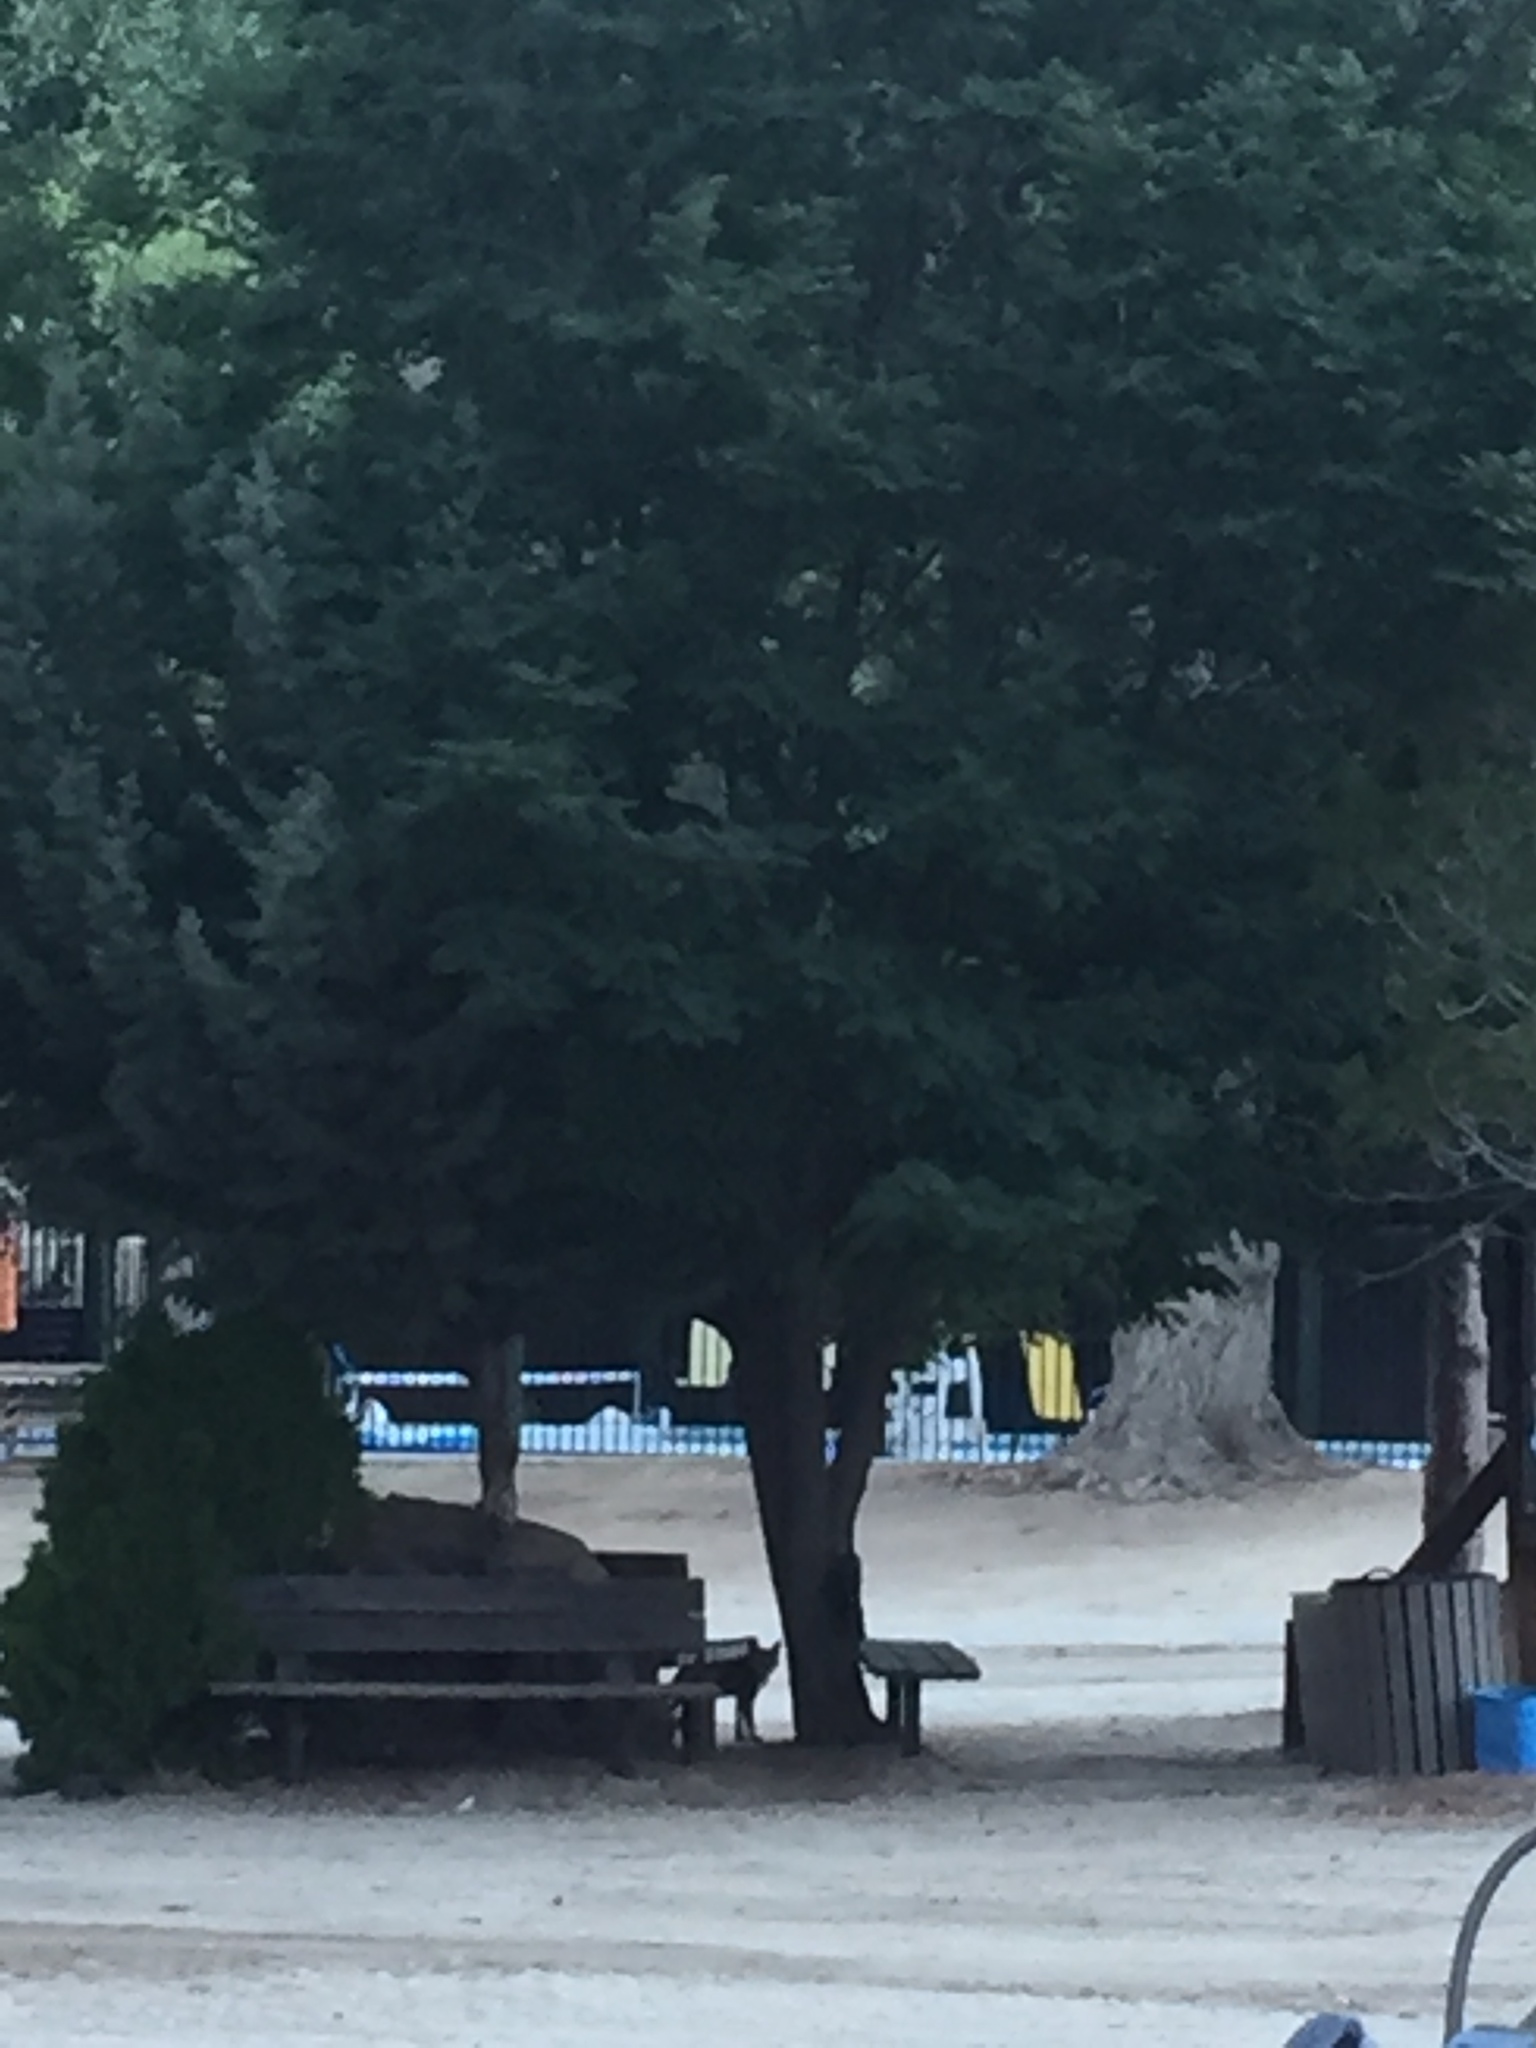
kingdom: Animalia
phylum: Chordata
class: Mammalia
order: Carnivora
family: Felidae
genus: Lynx
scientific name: Lynx rufus
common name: Bobcat
